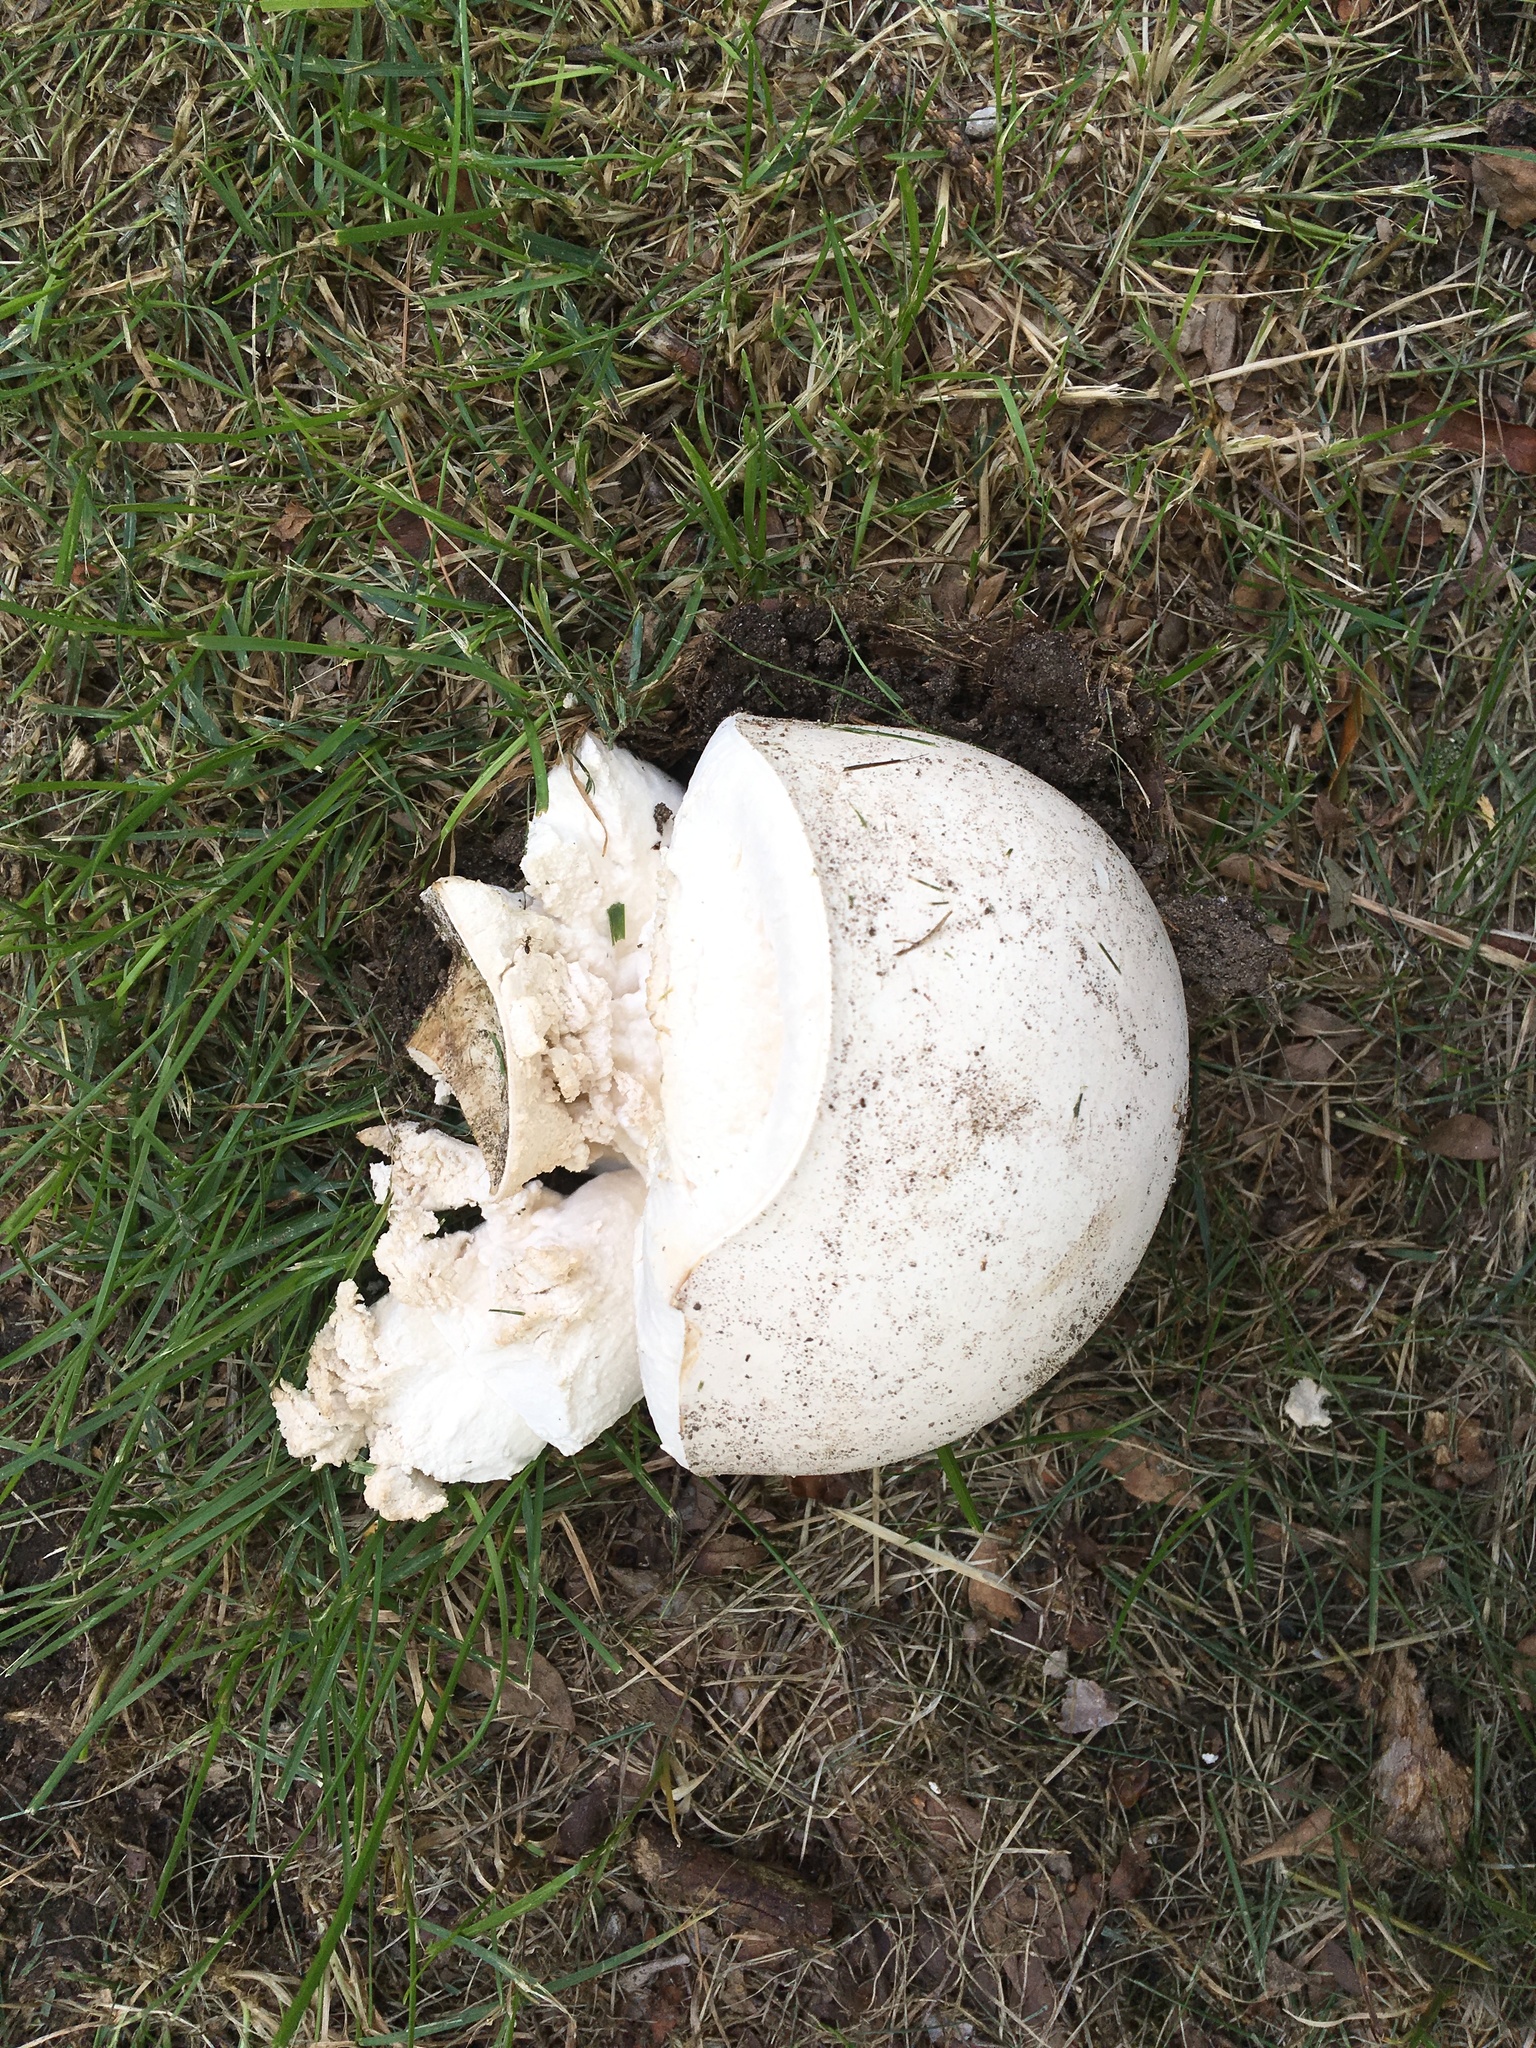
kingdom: Fungi
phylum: Basidiomycota
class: Agaricomycetes
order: Agaricales
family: Lycoperdaceae
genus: Calvatia
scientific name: Calvatia gigantea
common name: Giant puffball
